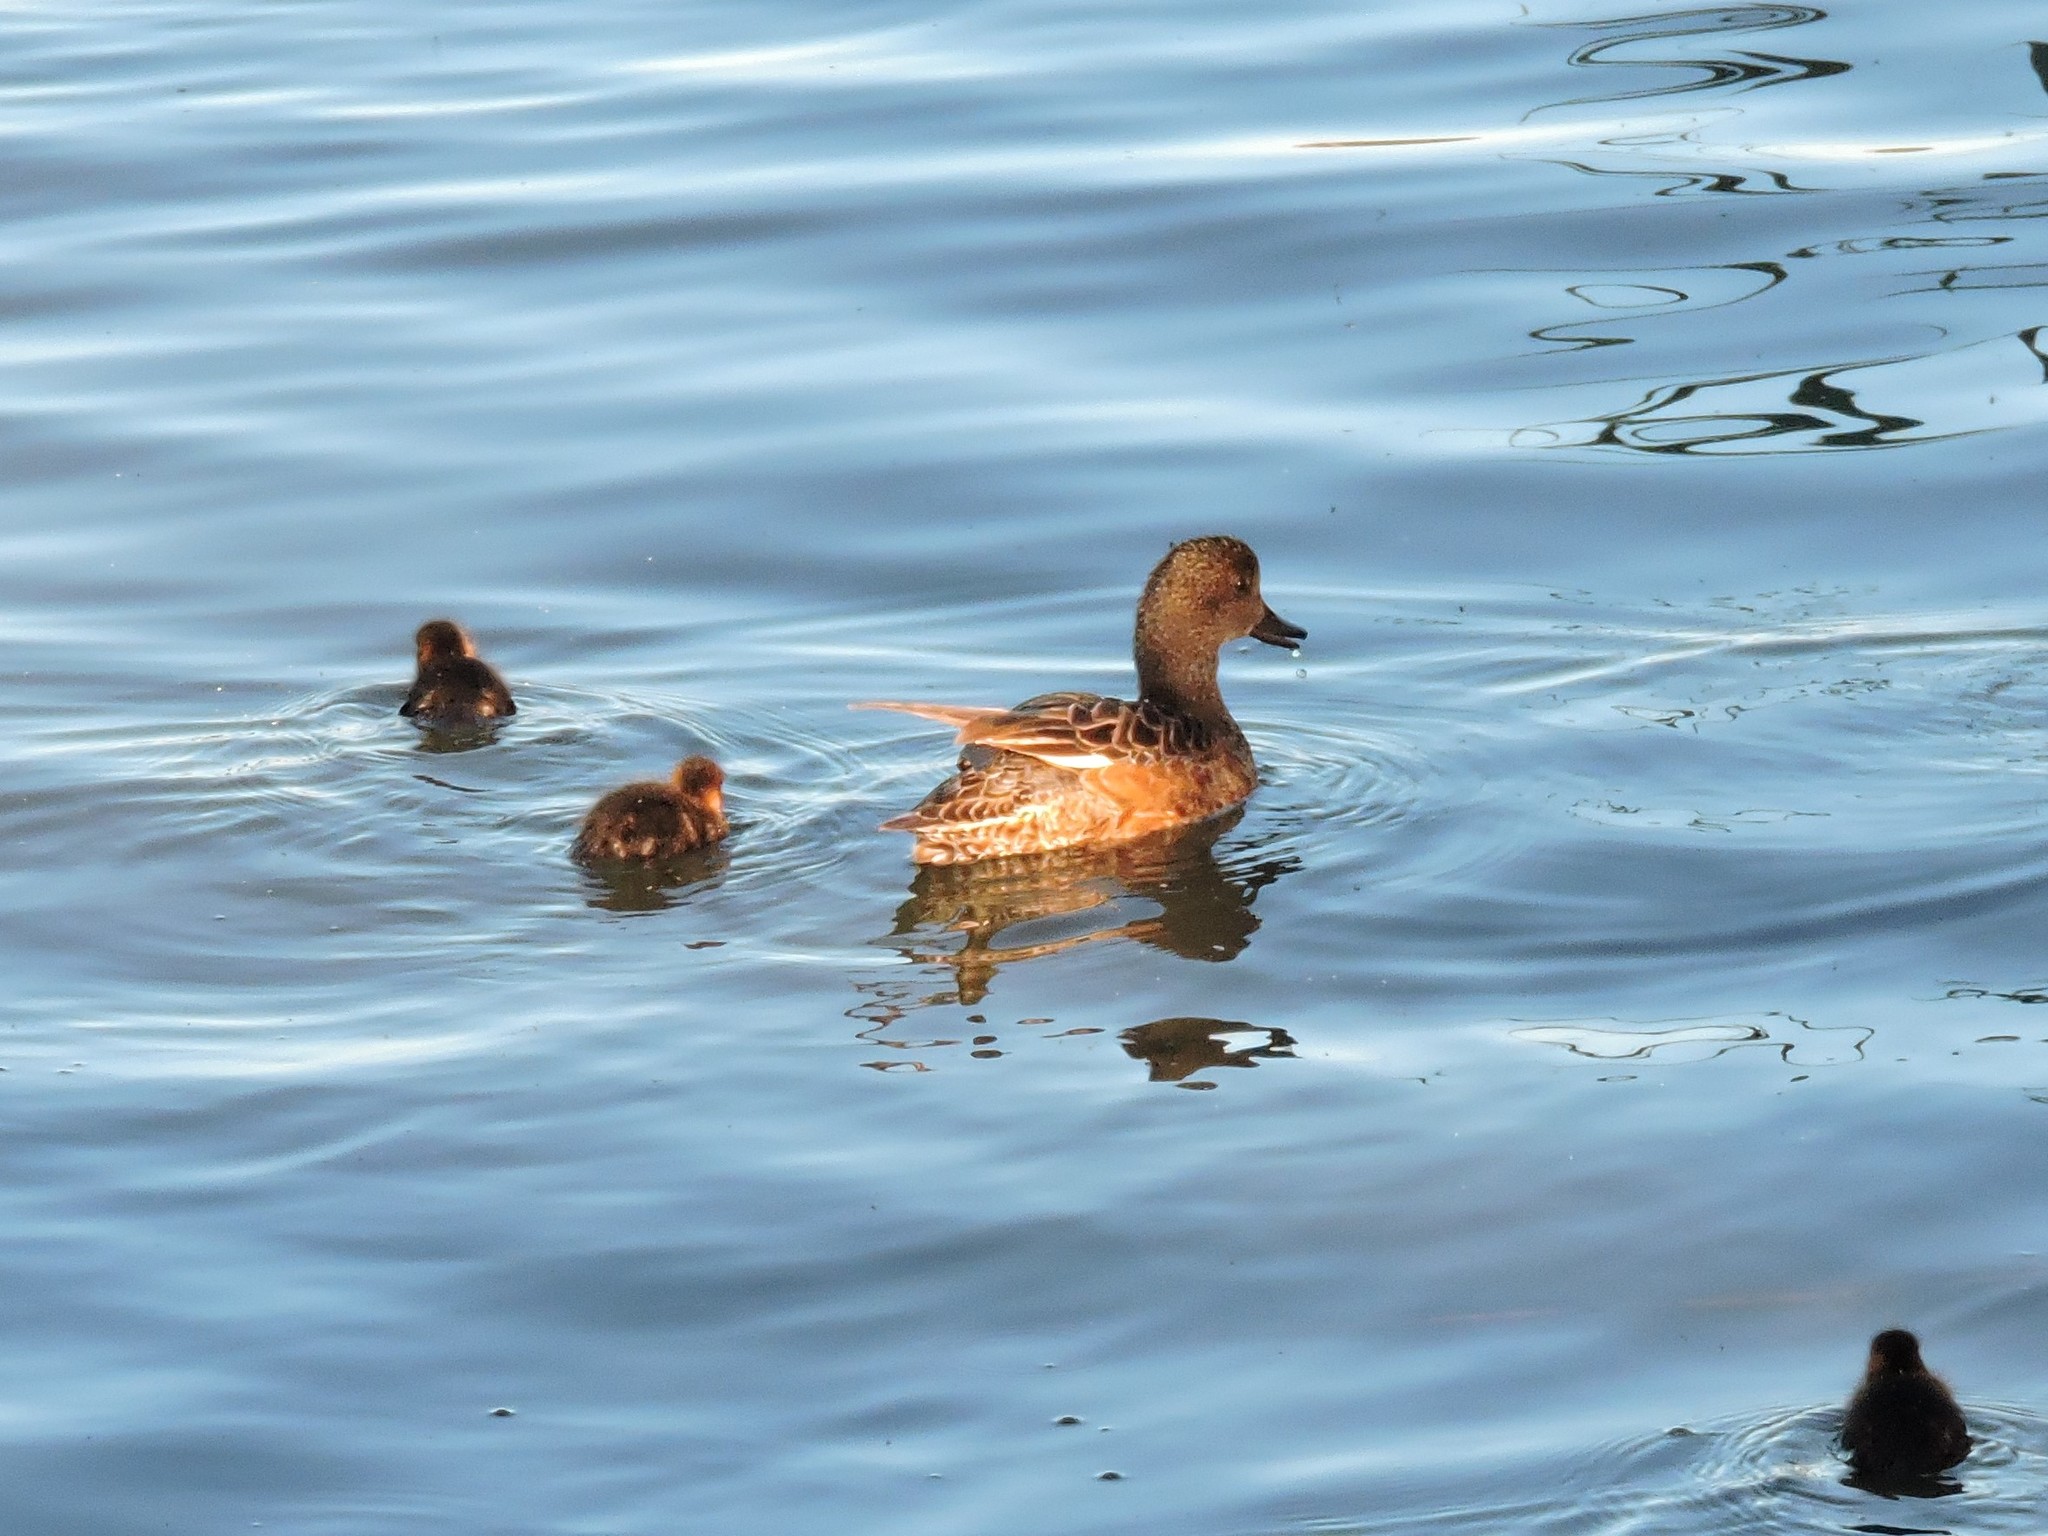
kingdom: Animalia
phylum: Chordata
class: Aves
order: Anseriformes
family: Anatidae
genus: Mareca
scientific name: Mareca penelope
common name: Eurasian wigeon
